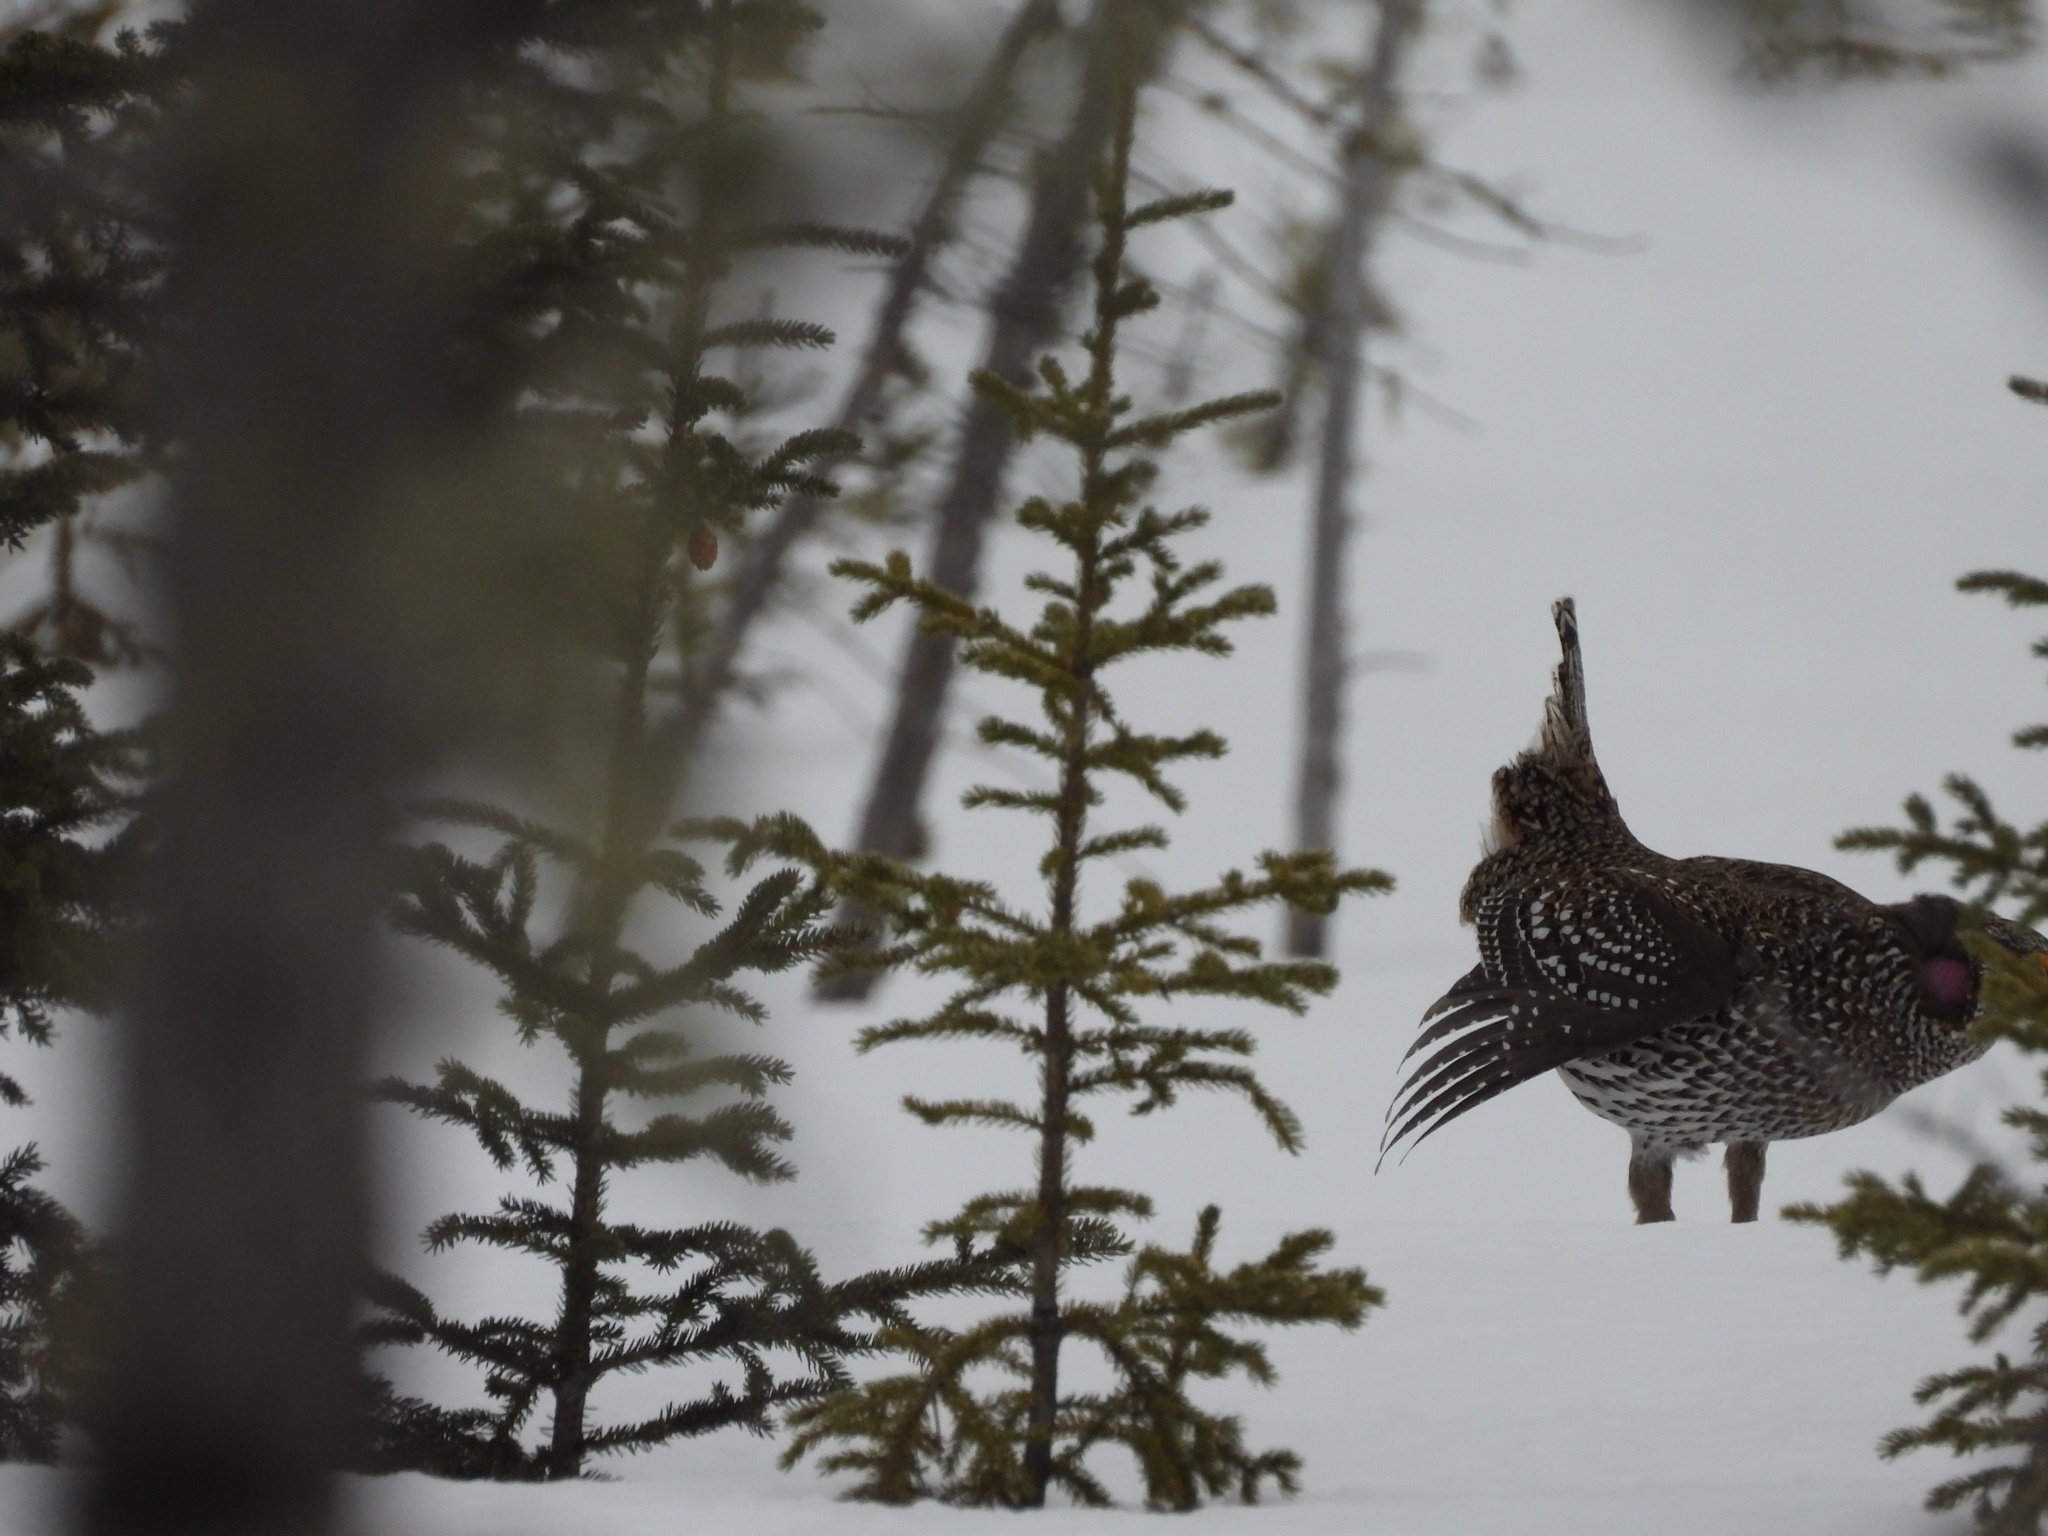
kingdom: Animalia
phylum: Chordata
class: Aves
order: Galliformes
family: Phasianidae
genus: Tympanuchus
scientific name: Tympanuchus phasianellus
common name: Sharp-tailed grouse
